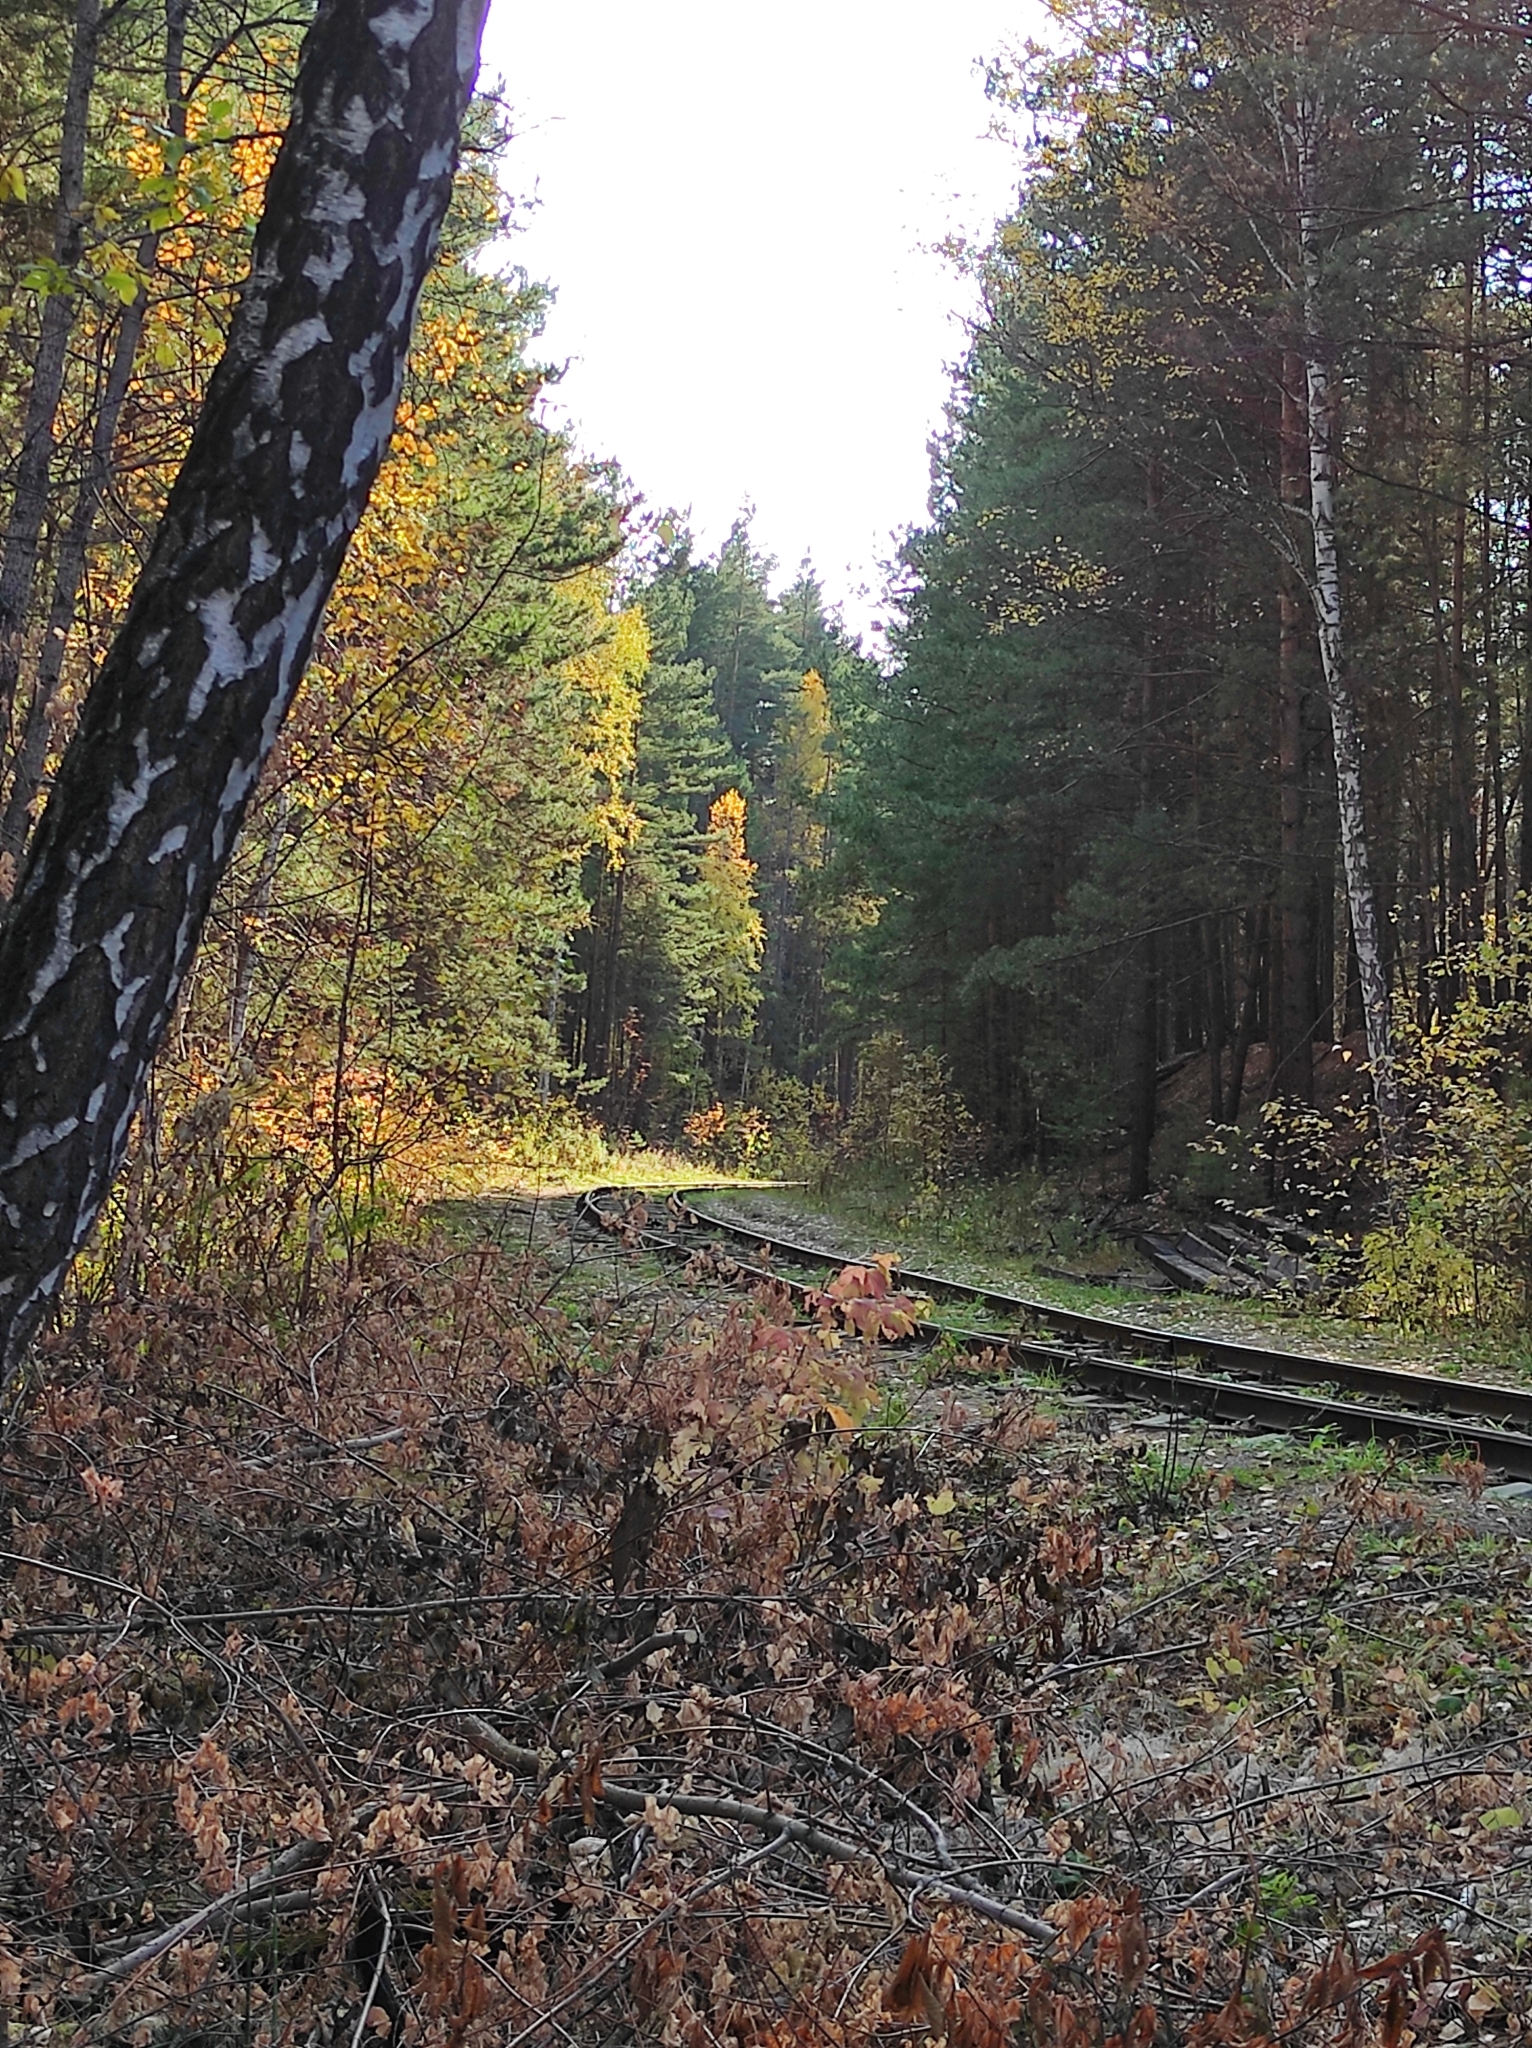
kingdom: Plantae
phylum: Tracheophyta
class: Pinopsida
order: Pinales
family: Pinaceae
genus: Pinus
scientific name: Pinus sylvestris
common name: Scots pine
